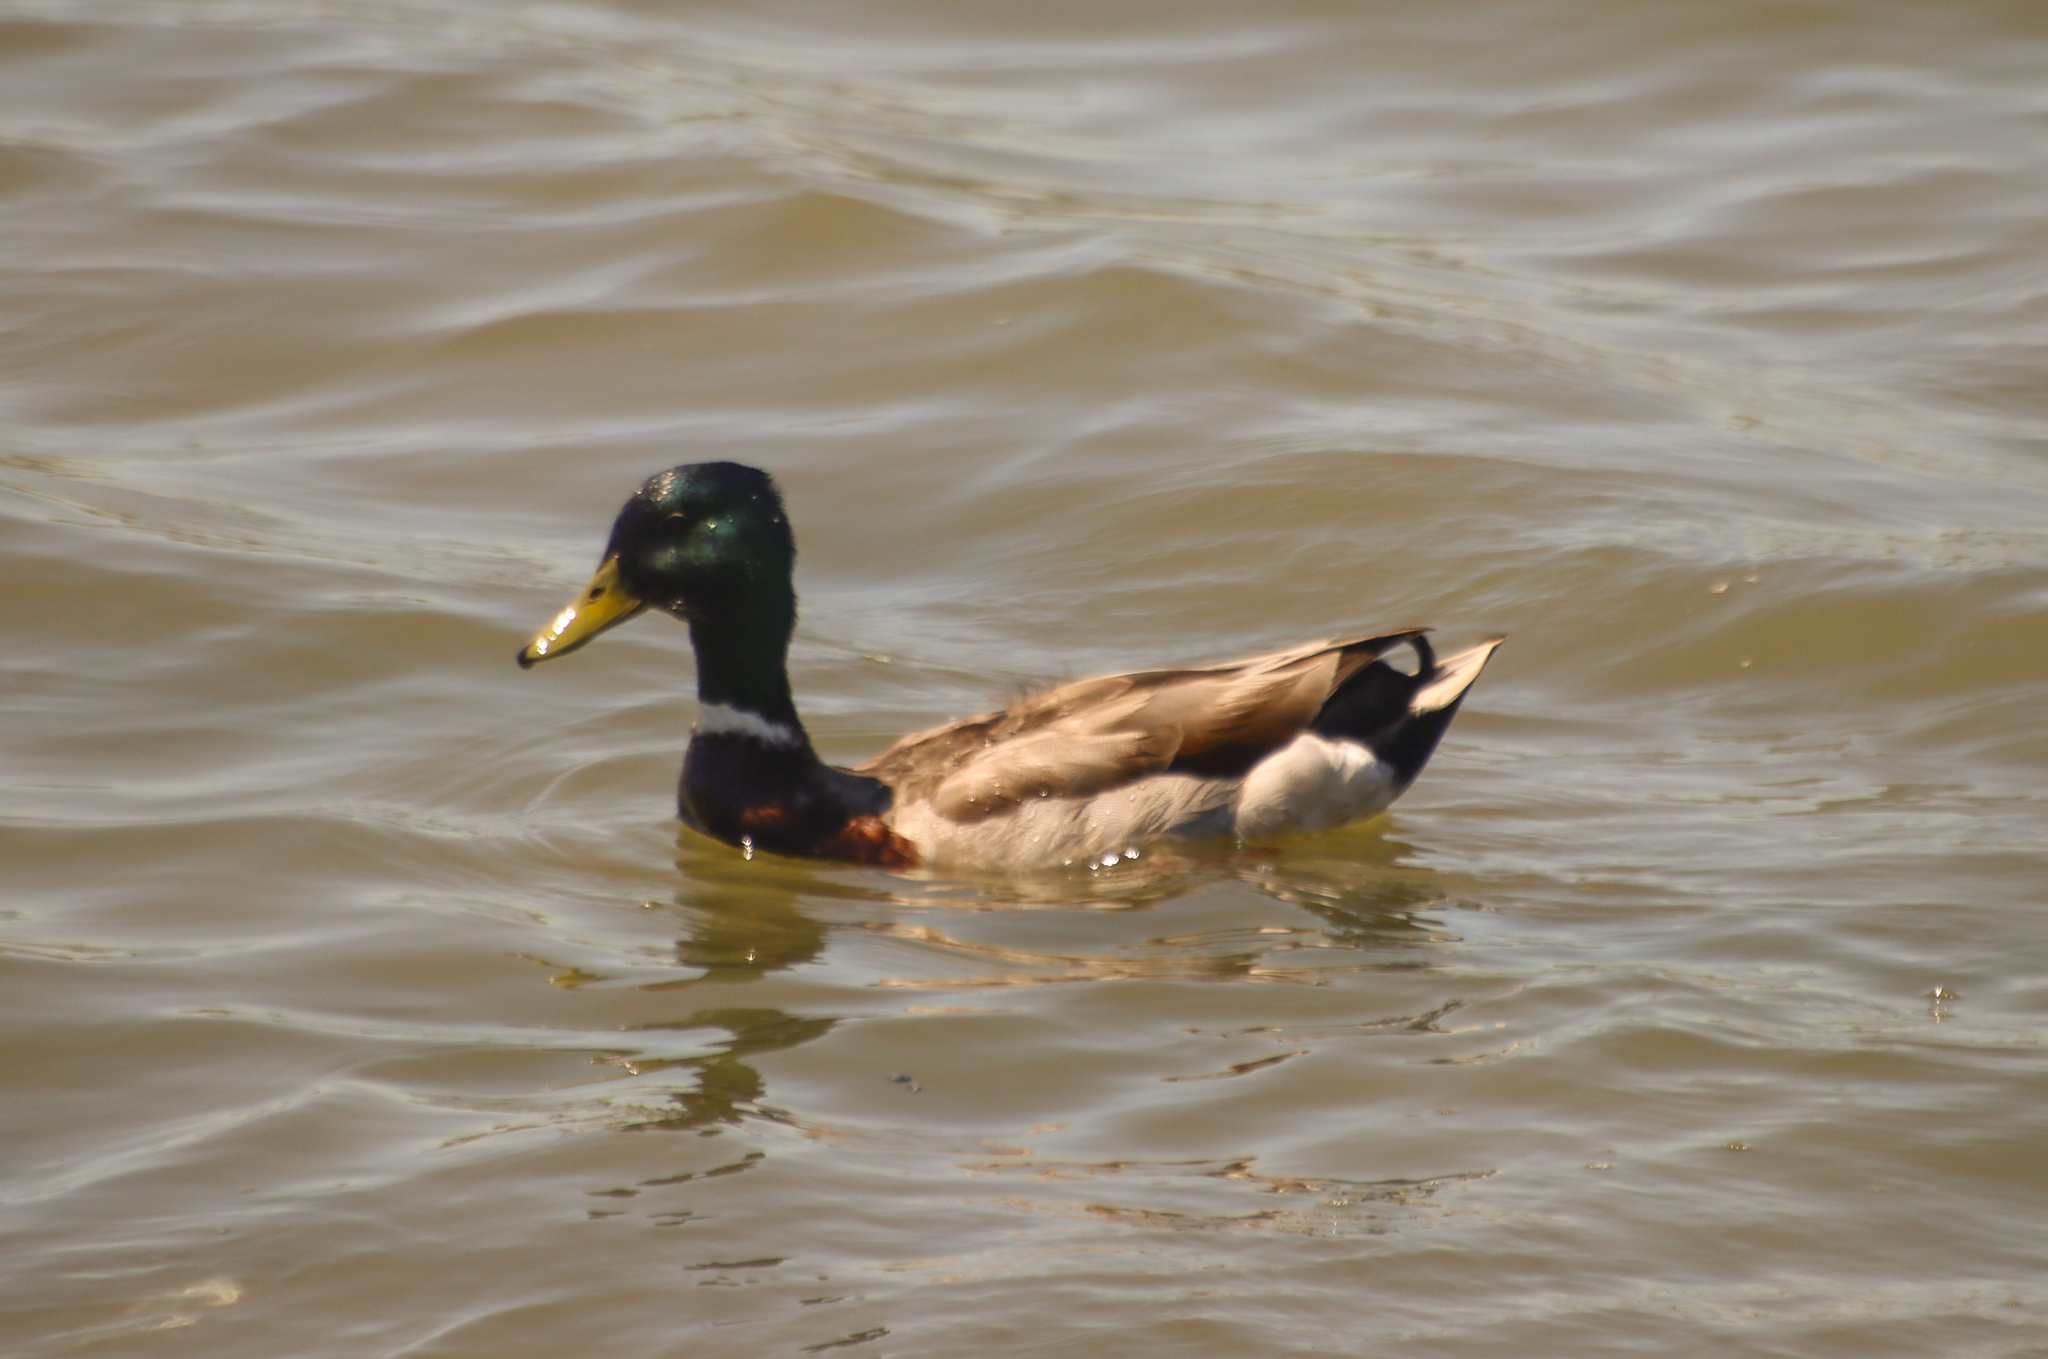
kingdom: Animalia
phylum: Chordata
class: Aves
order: Anseriformes
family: Anatidae
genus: Anas
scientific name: Anas platyrhynchos
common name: Mallard
